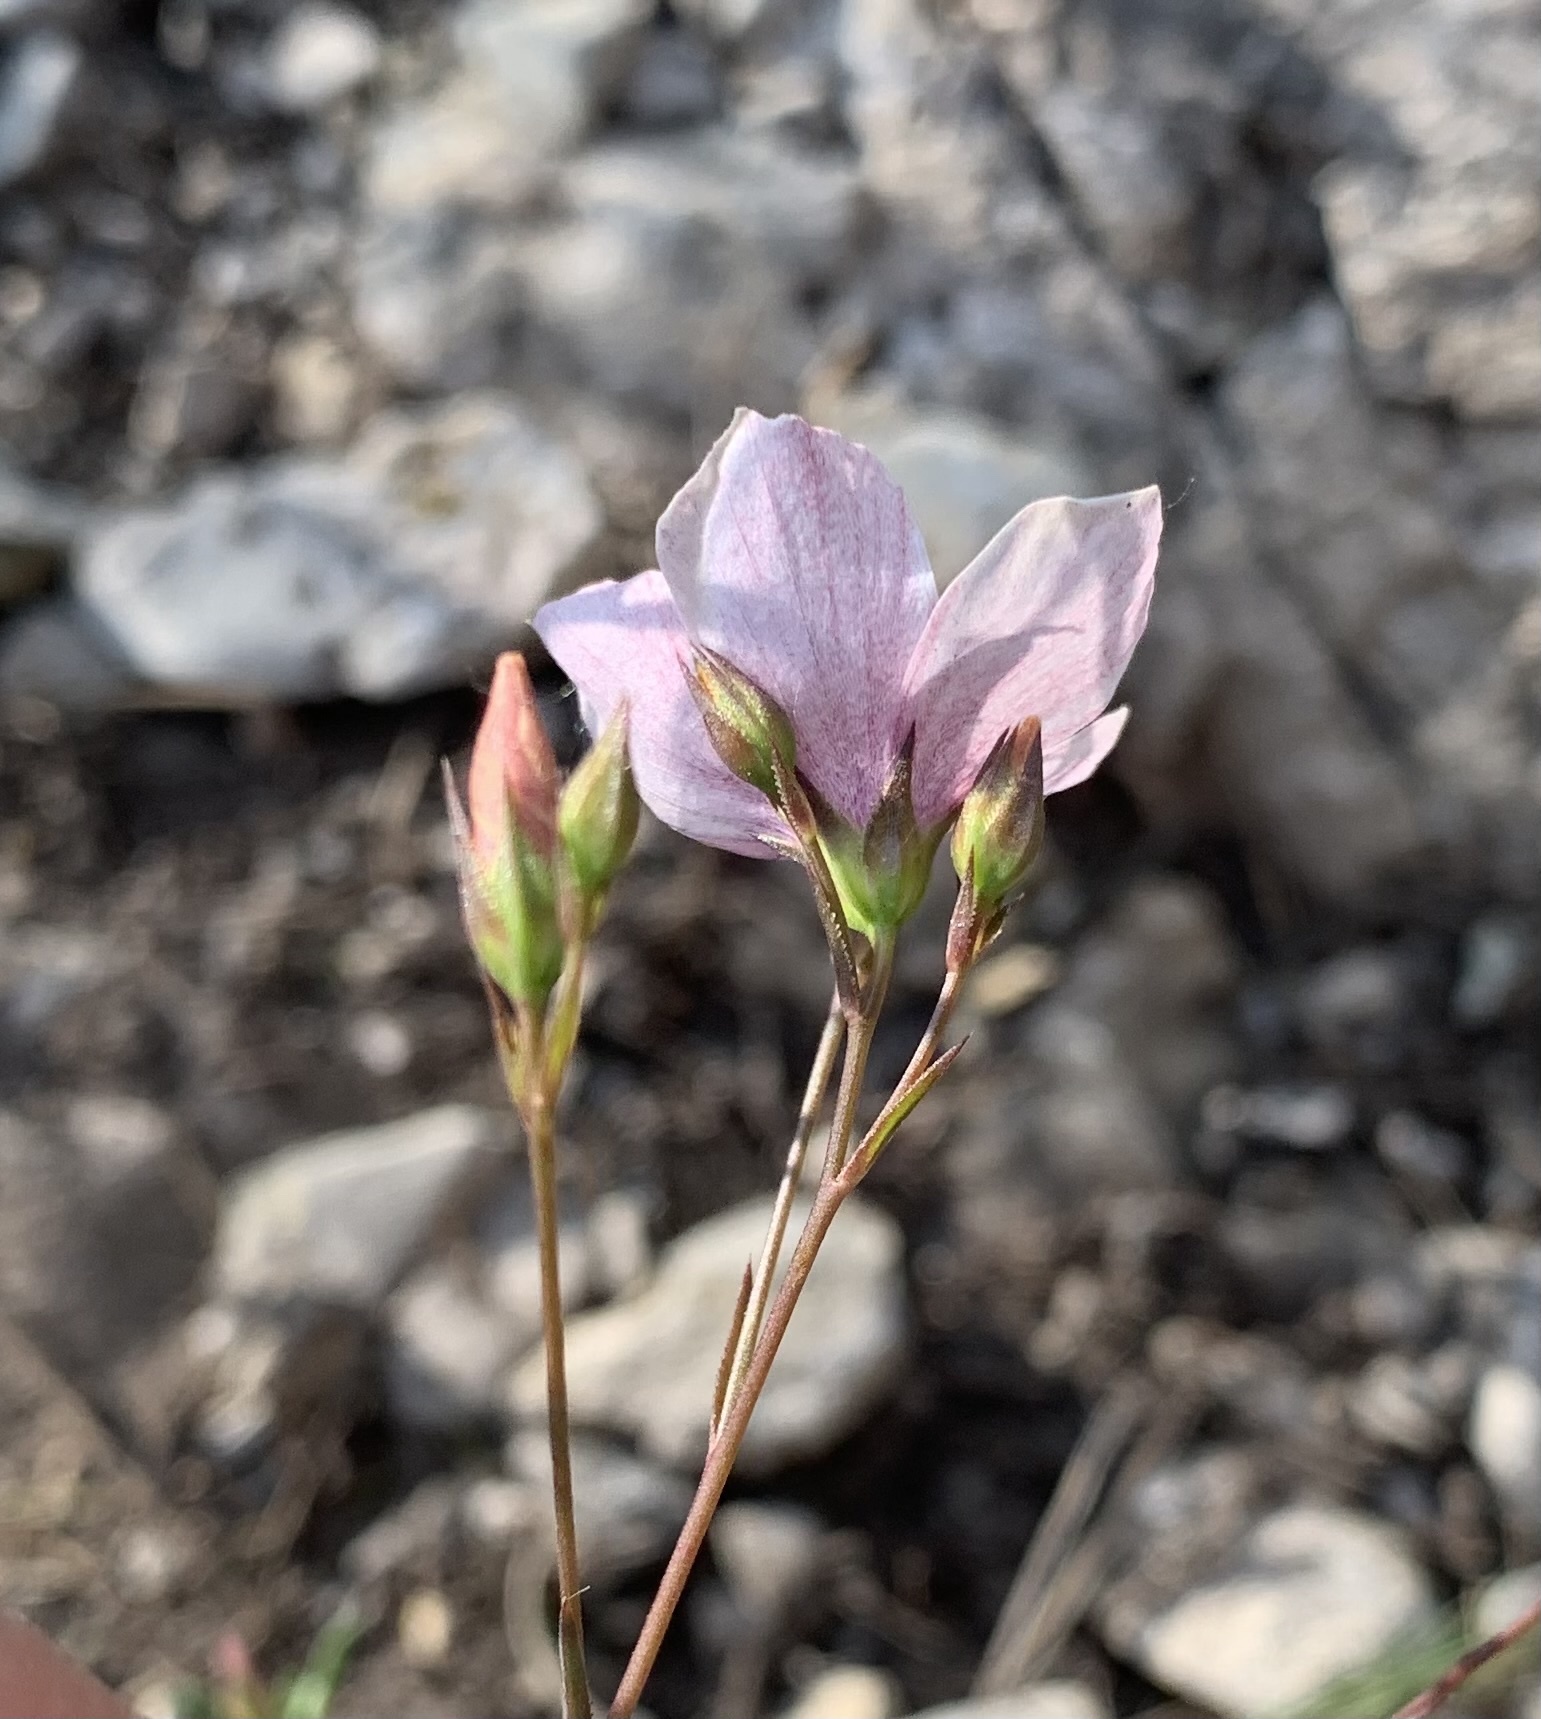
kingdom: Plantae
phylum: Tracheophyta
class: Magnoliopsida
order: Malpighiales
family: Linaceae
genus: Linum
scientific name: Linum tenuifolium
